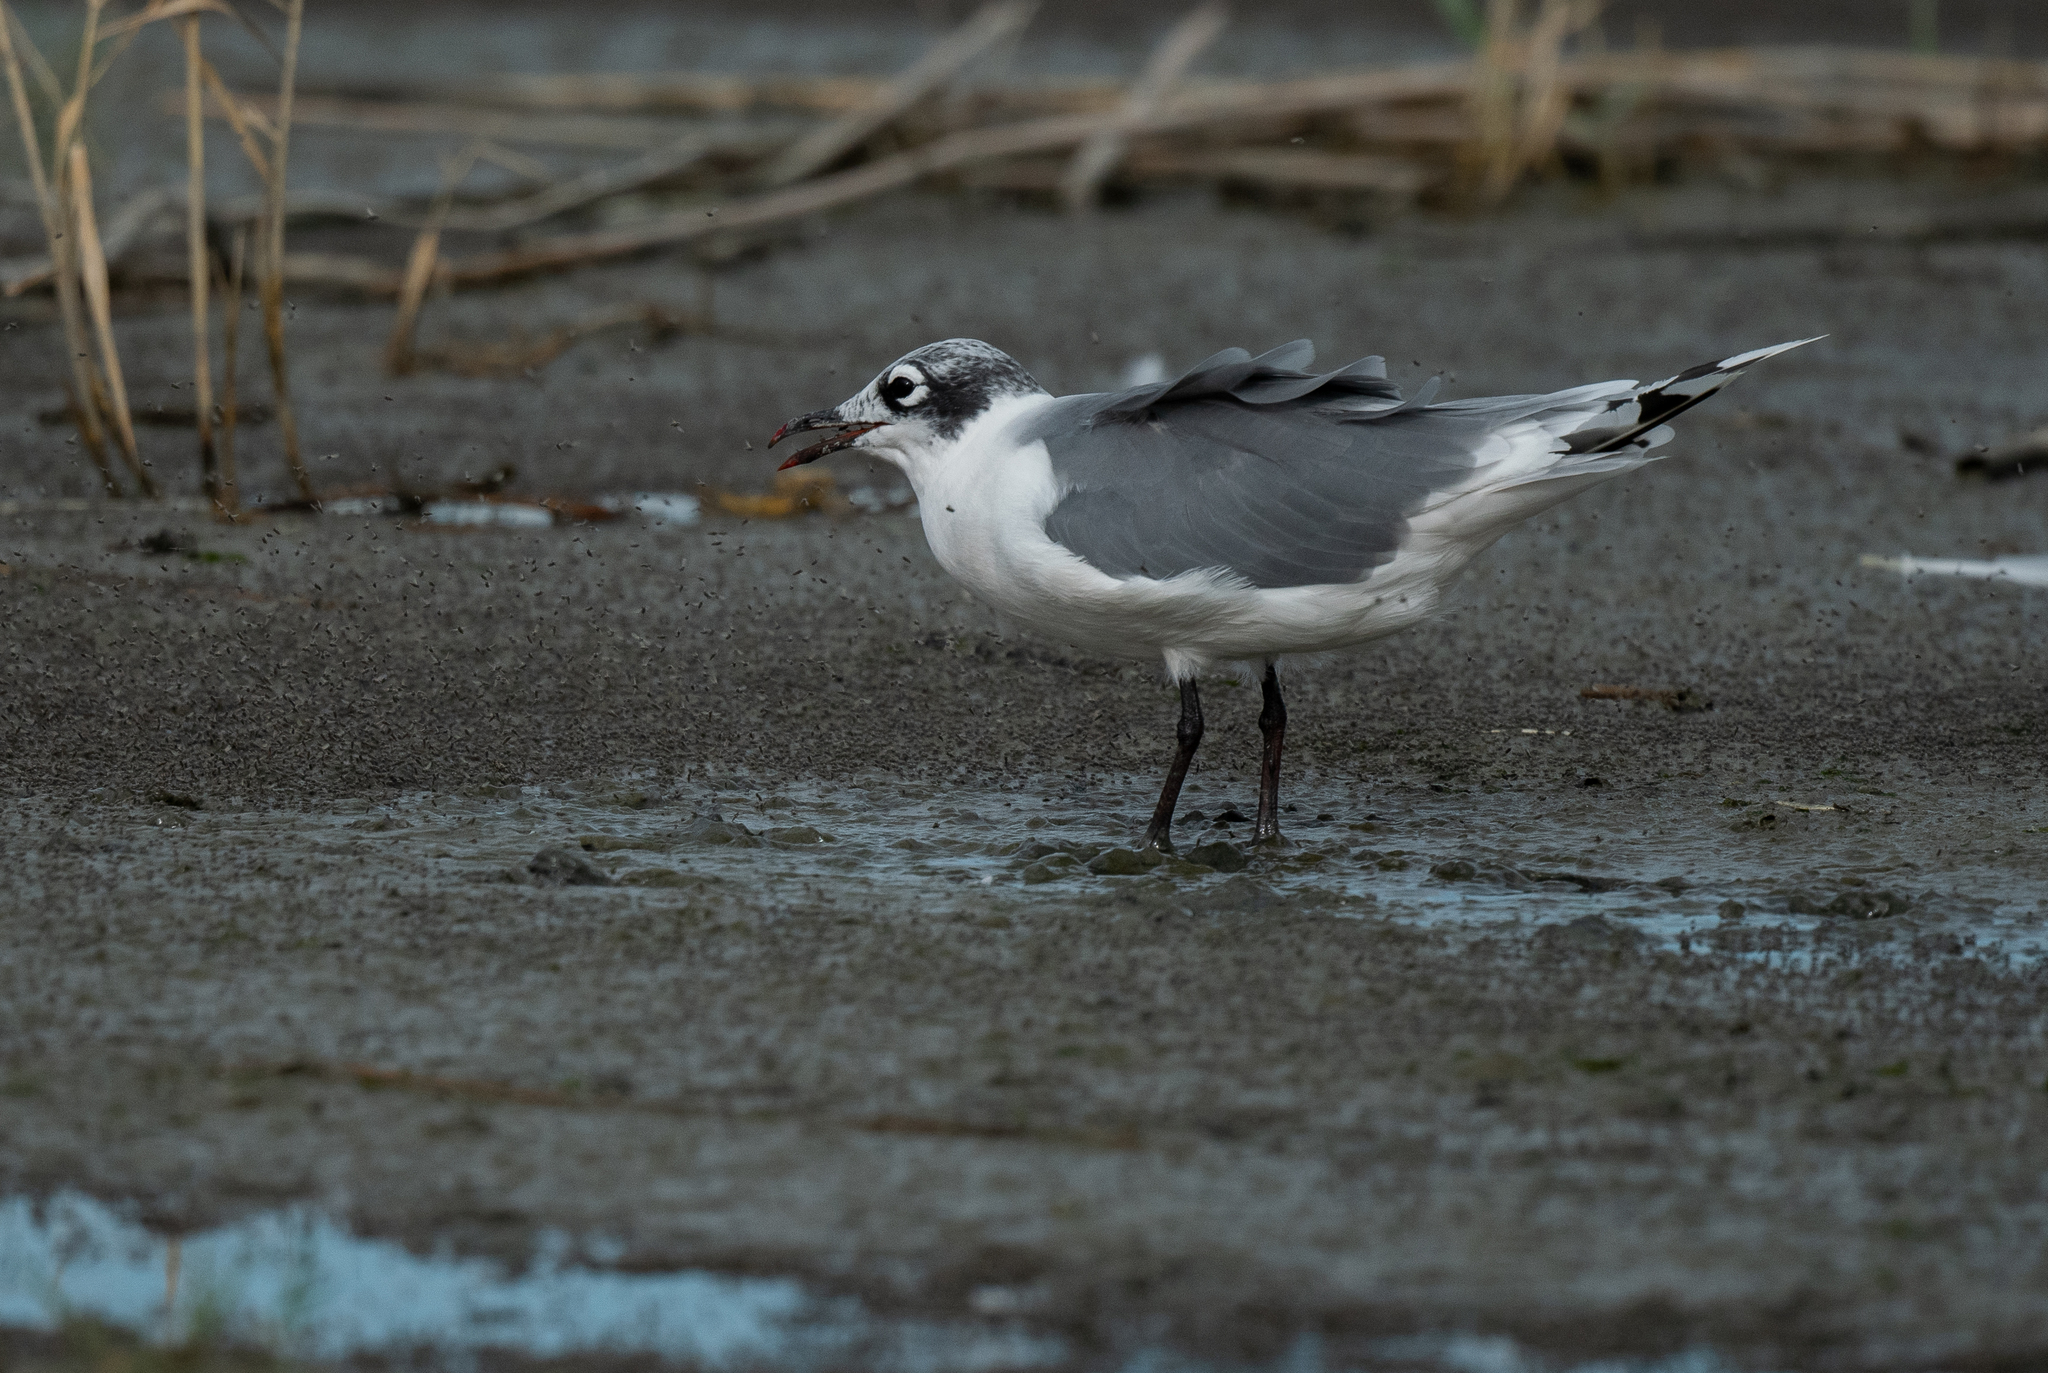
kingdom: Animalia
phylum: Chordata
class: Aves
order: Charadriiformes
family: Laridae
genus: Leucophaeus
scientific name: Leucophaeus pipixcan
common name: Franklin's gull
